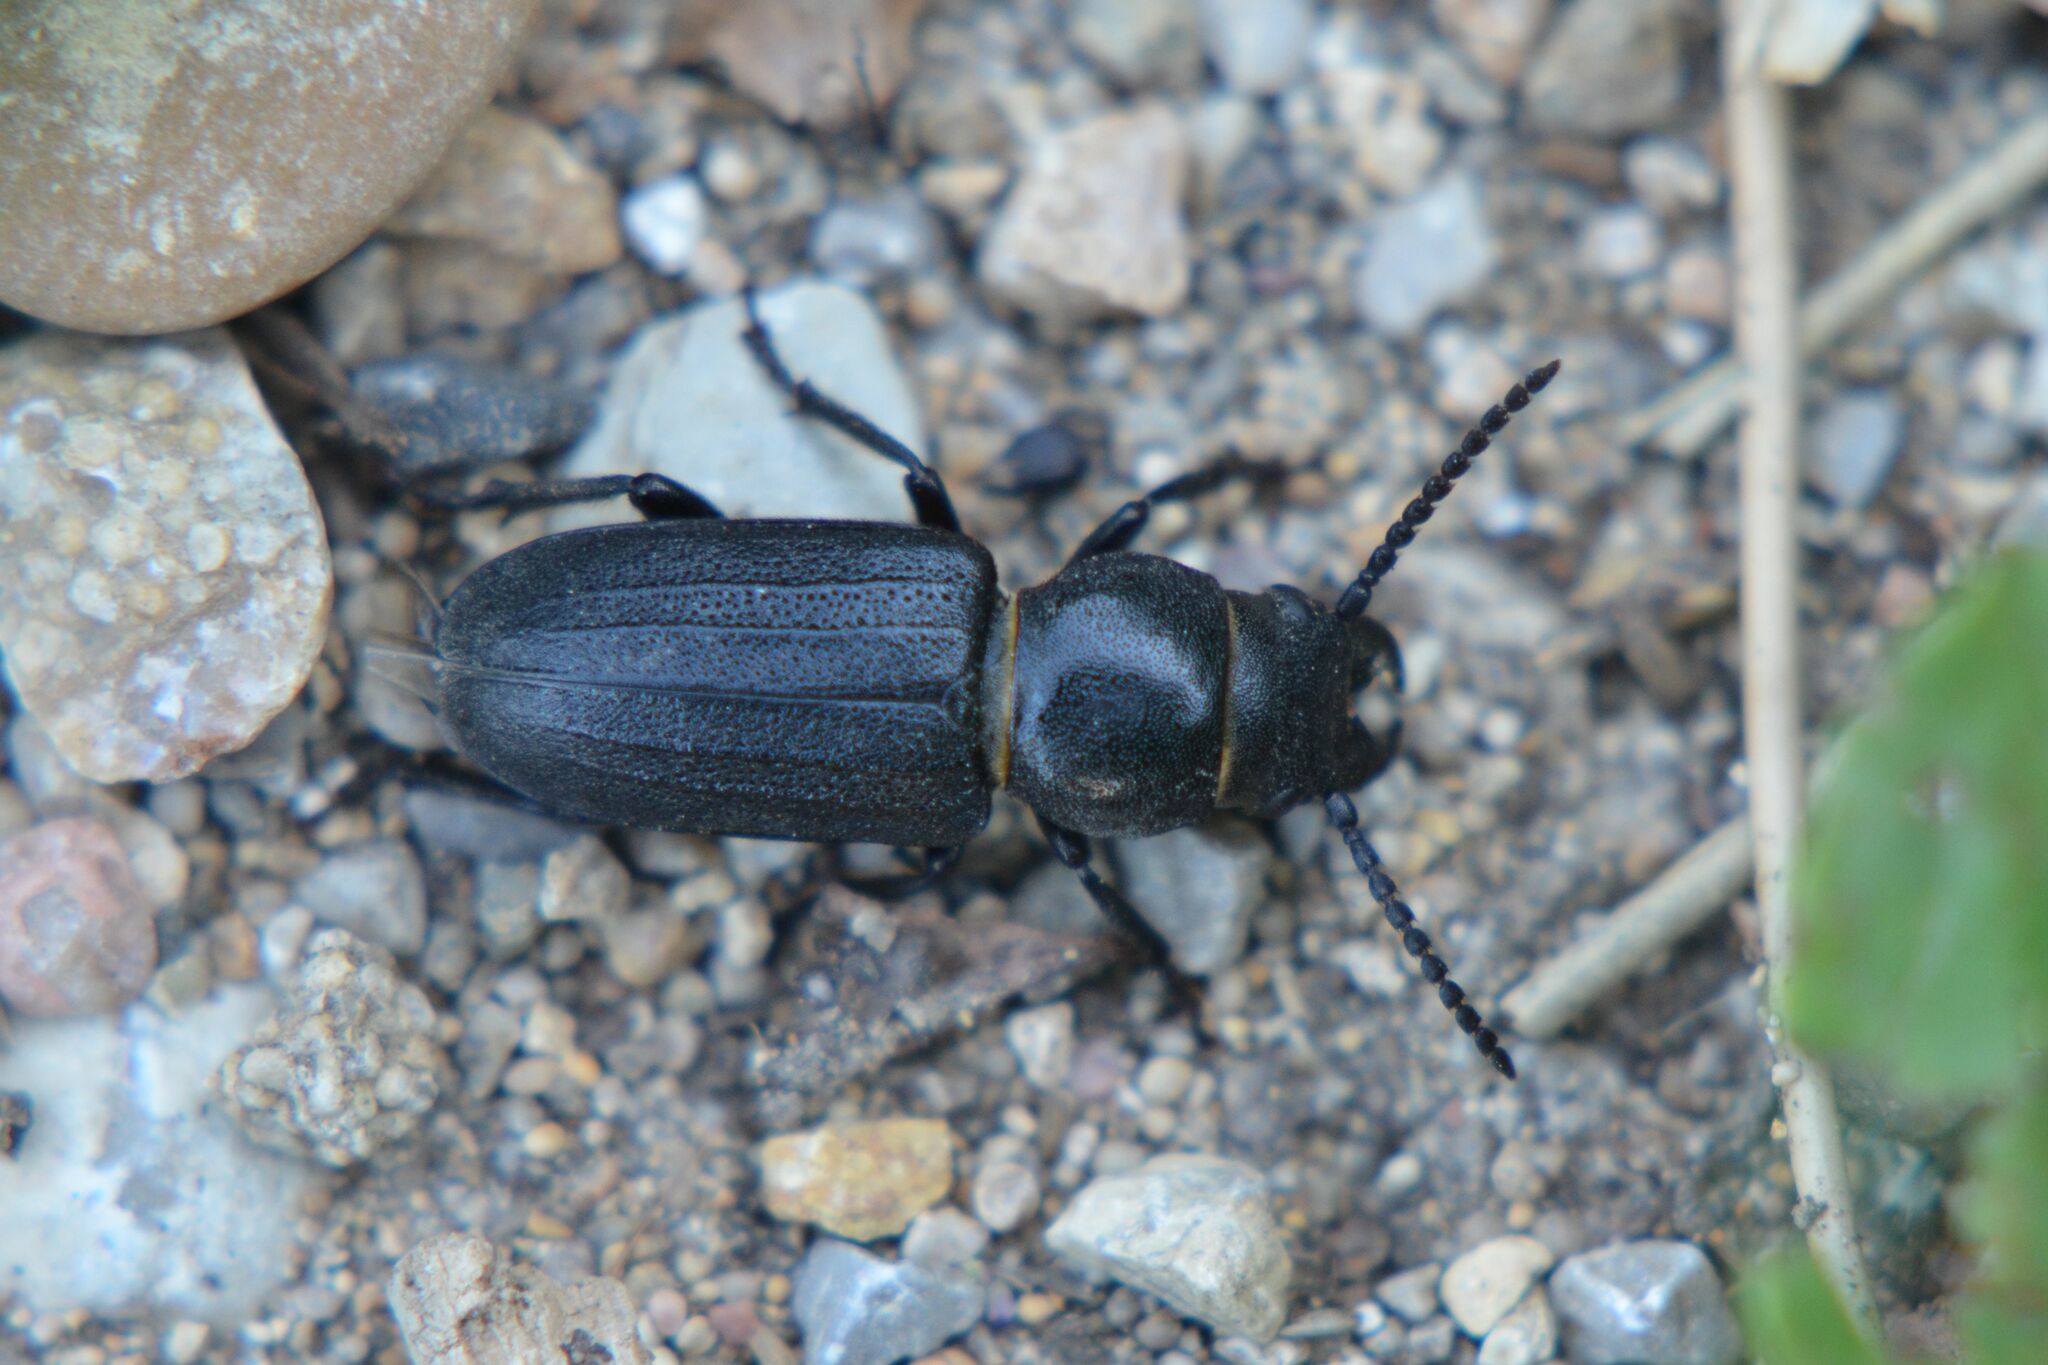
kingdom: Animalia
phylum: Arthropoda
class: Insecta
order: Coleoptera
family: Cerambycidae
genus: Spondylis
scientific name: Spondylis buprestoides
